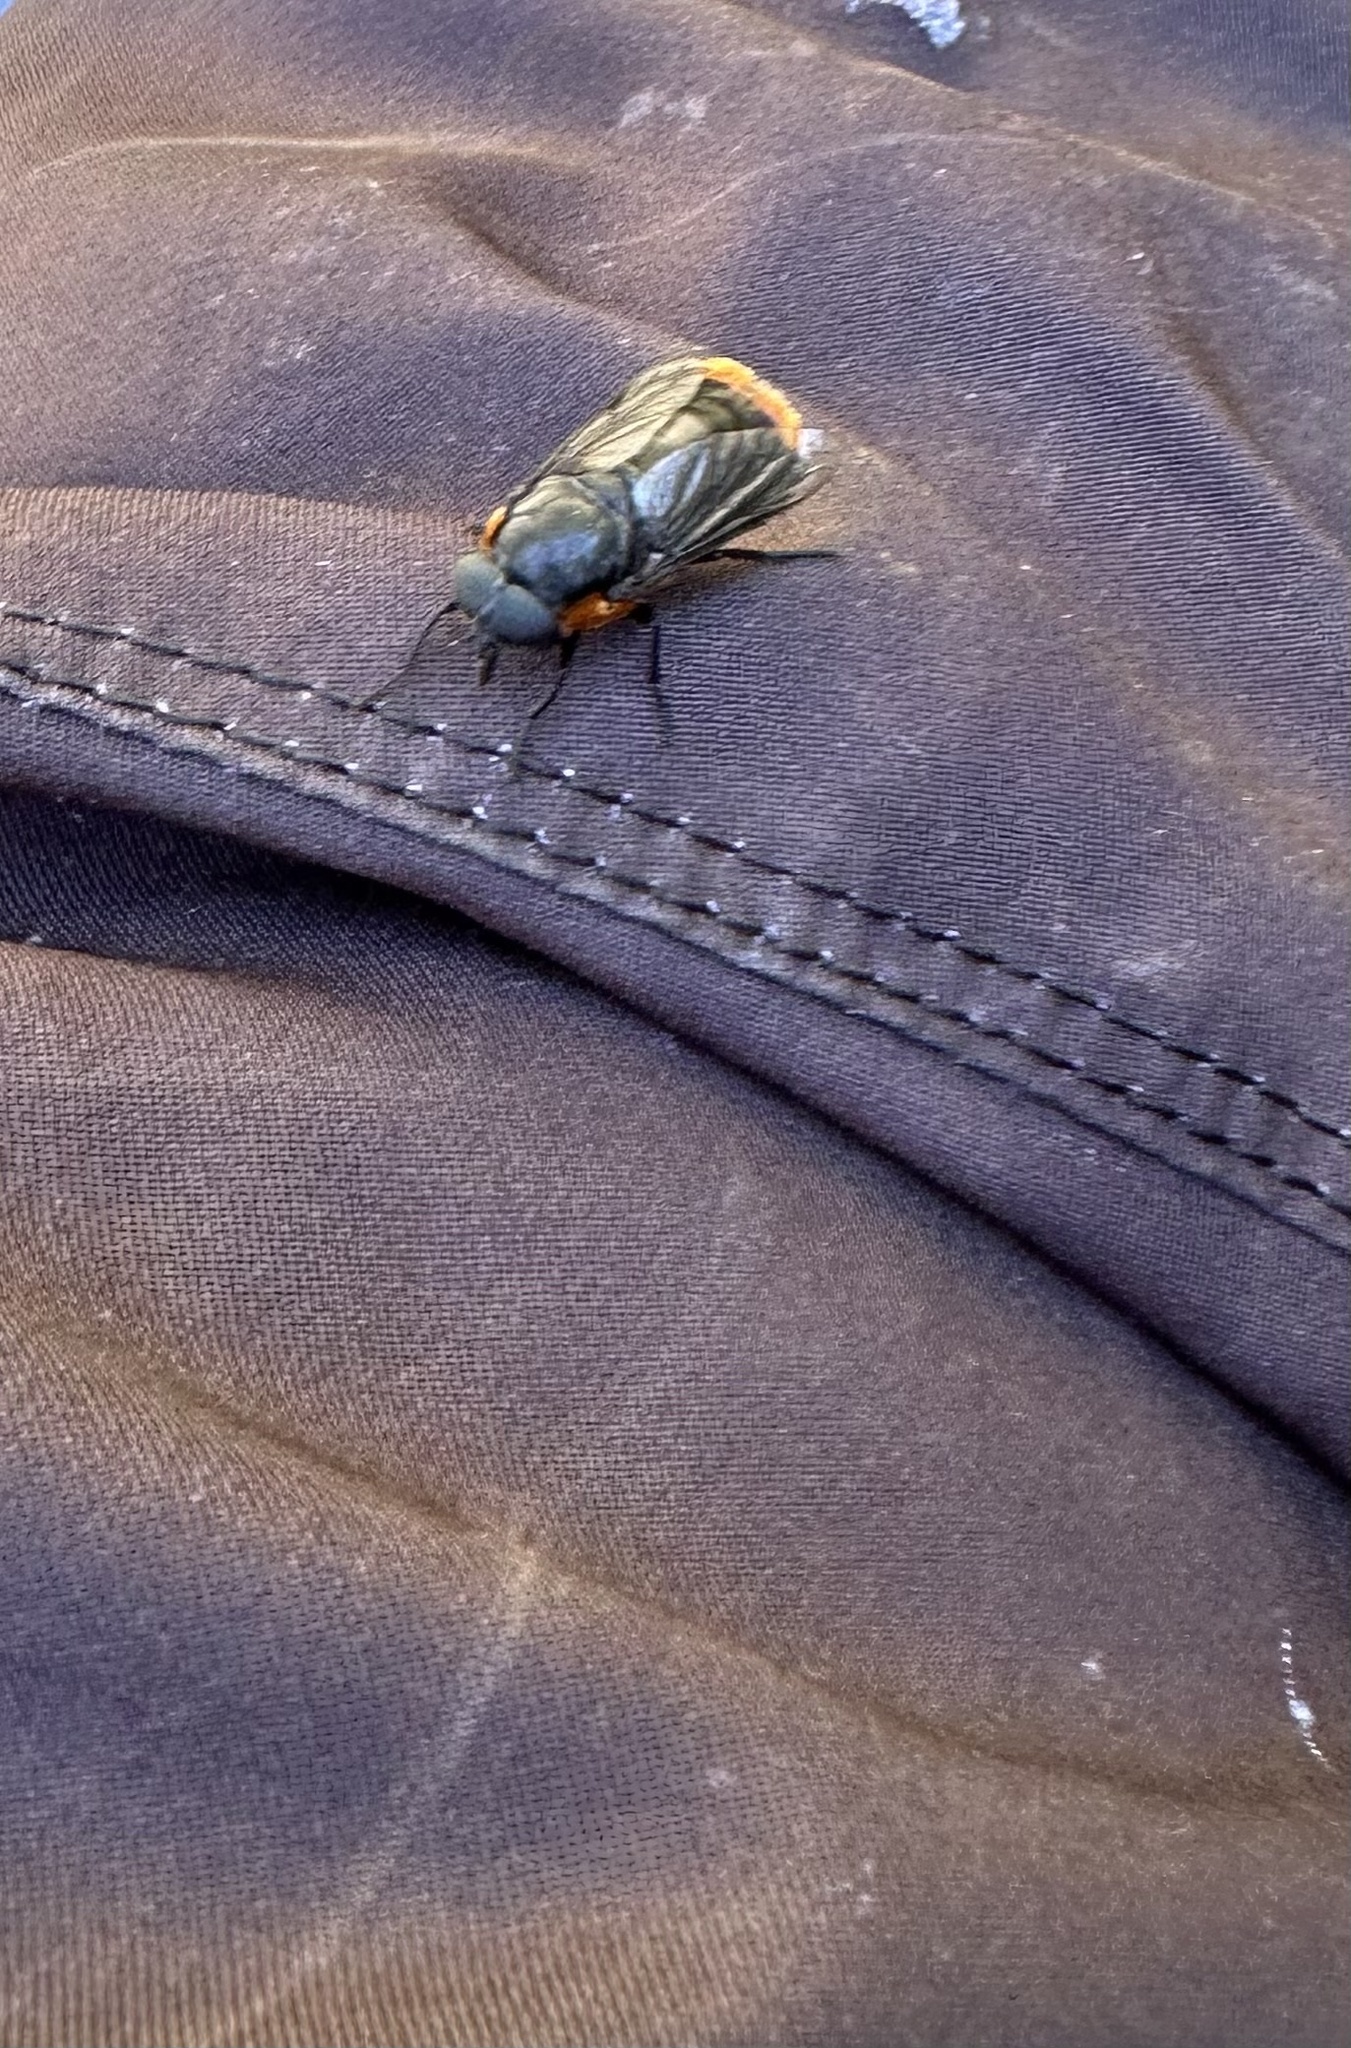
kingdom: Animalia
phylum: Arthropoda
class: Insecta
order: Diptera
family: Tabanidae
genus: Osca
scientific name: Osca lata
